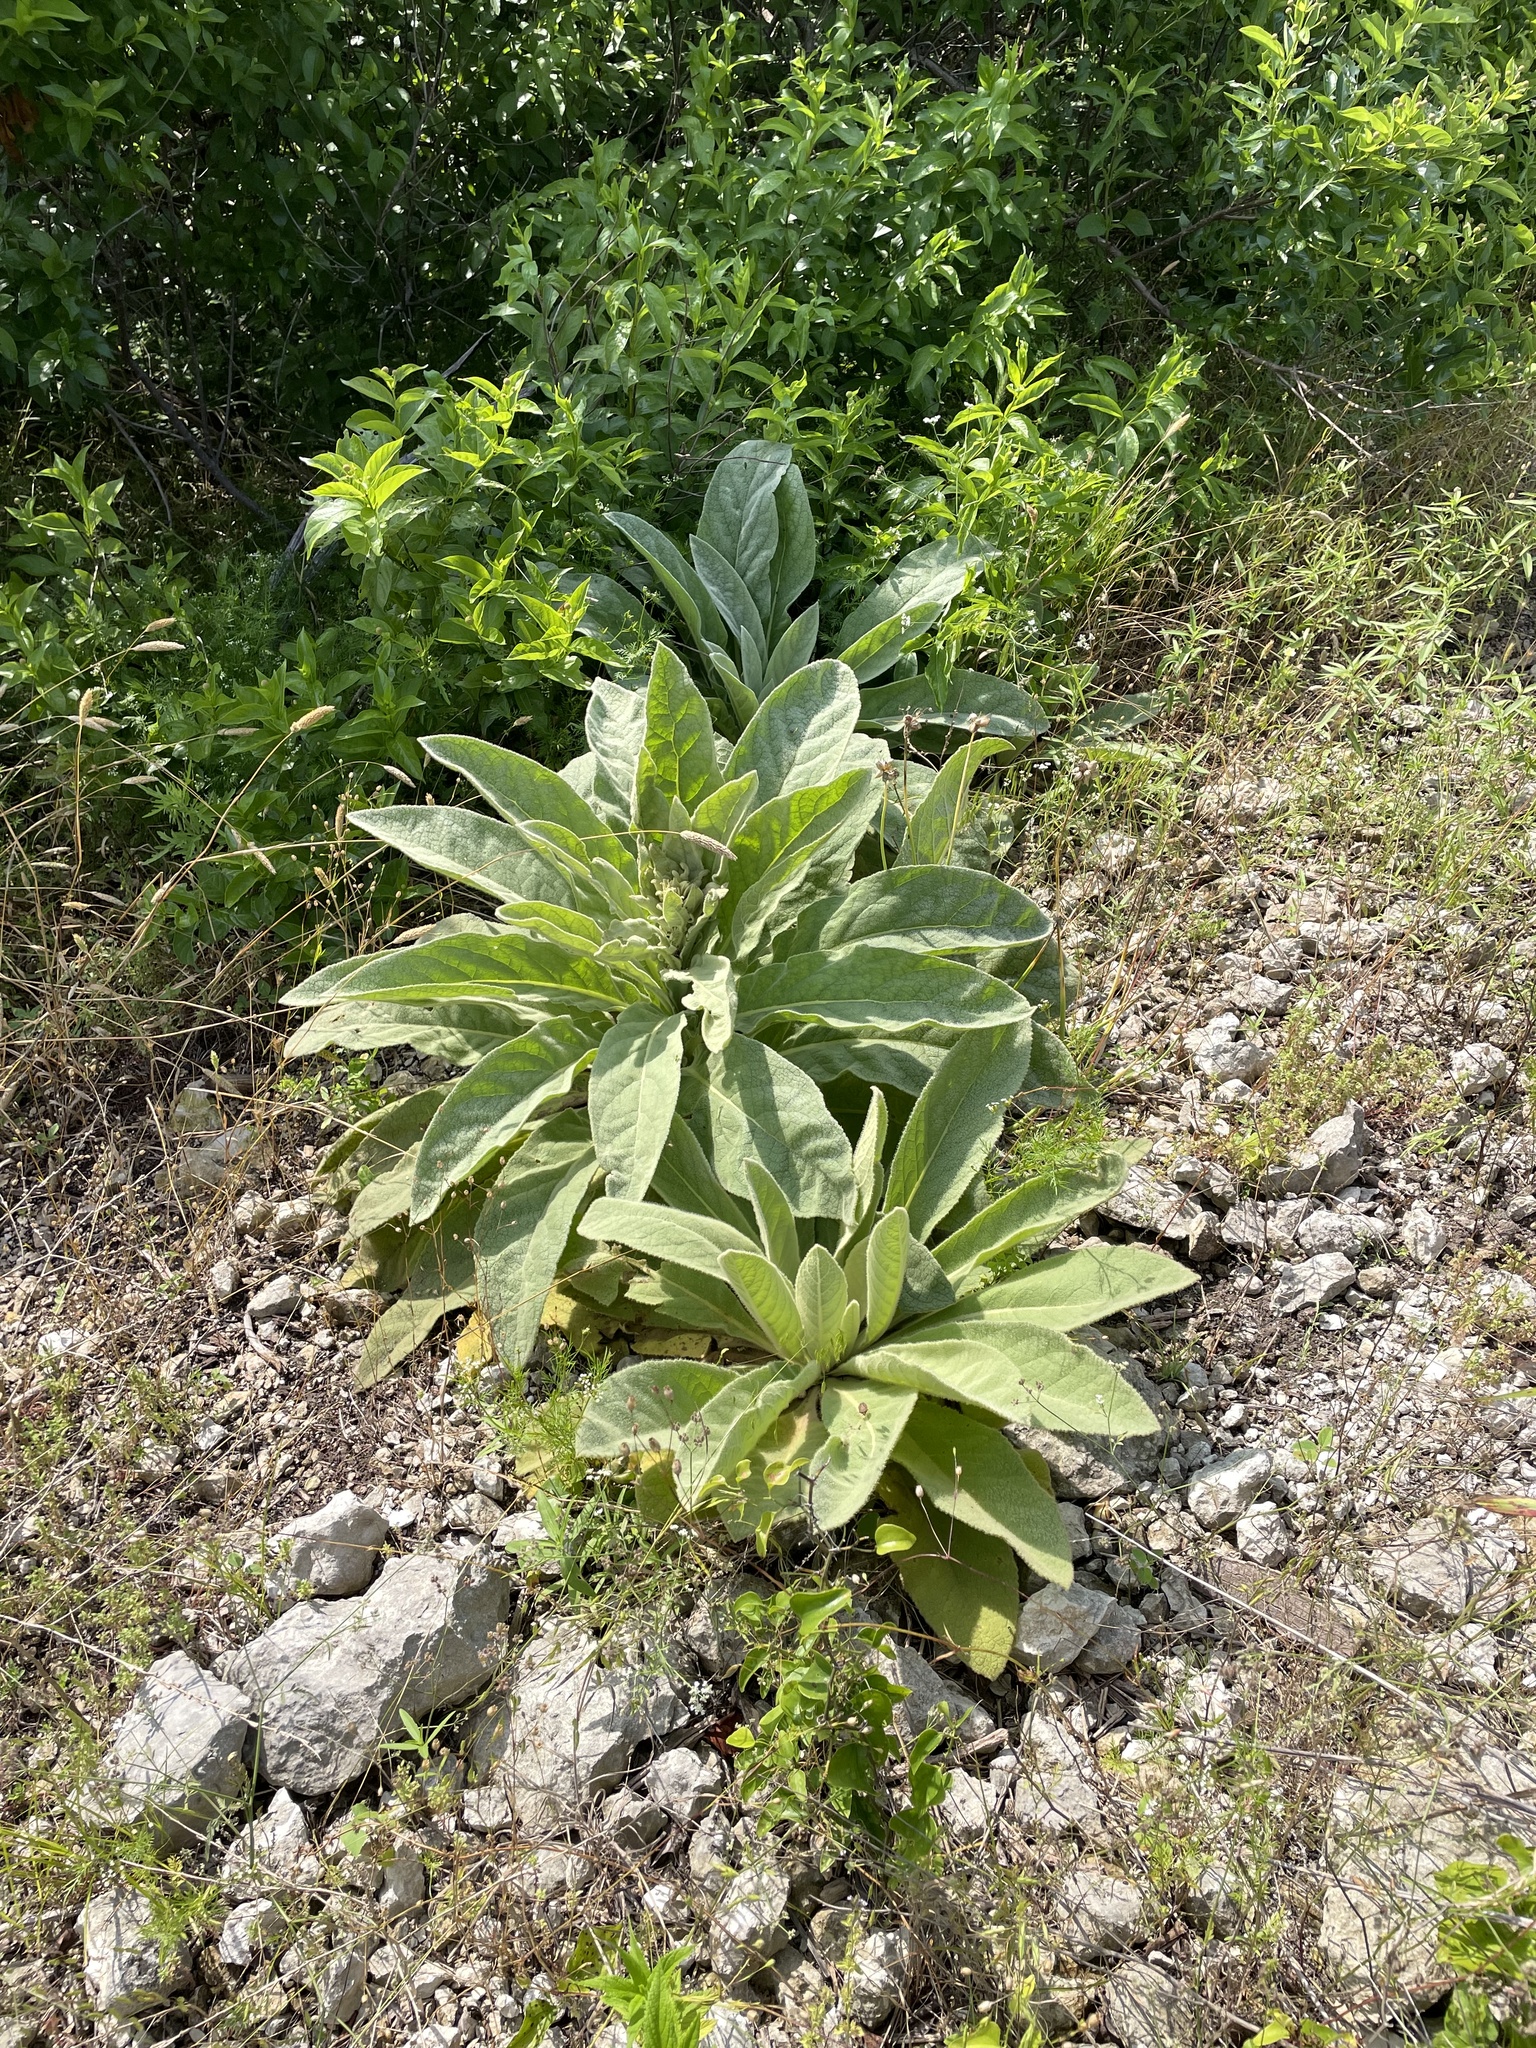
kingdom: Plantae
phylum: Tracheophyta
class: Magnoliopsida
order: Lamiales
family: Scrophulariaceae
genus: Verbascum
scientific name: Verbascum thapsus
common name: Common mullein
